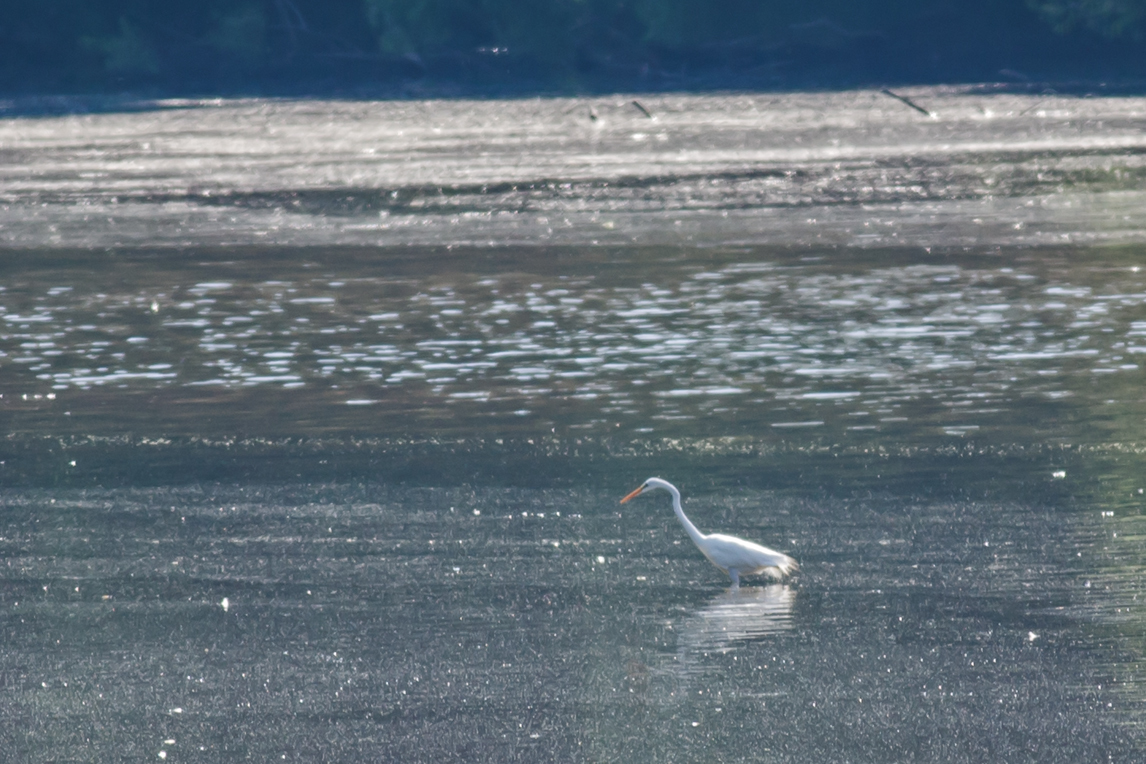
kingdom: Animalia
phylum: Chordata
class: Aves
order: Pelecaniformes
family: Ardeidae
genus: Ardea
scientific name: Ardea alba
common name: Great egret
